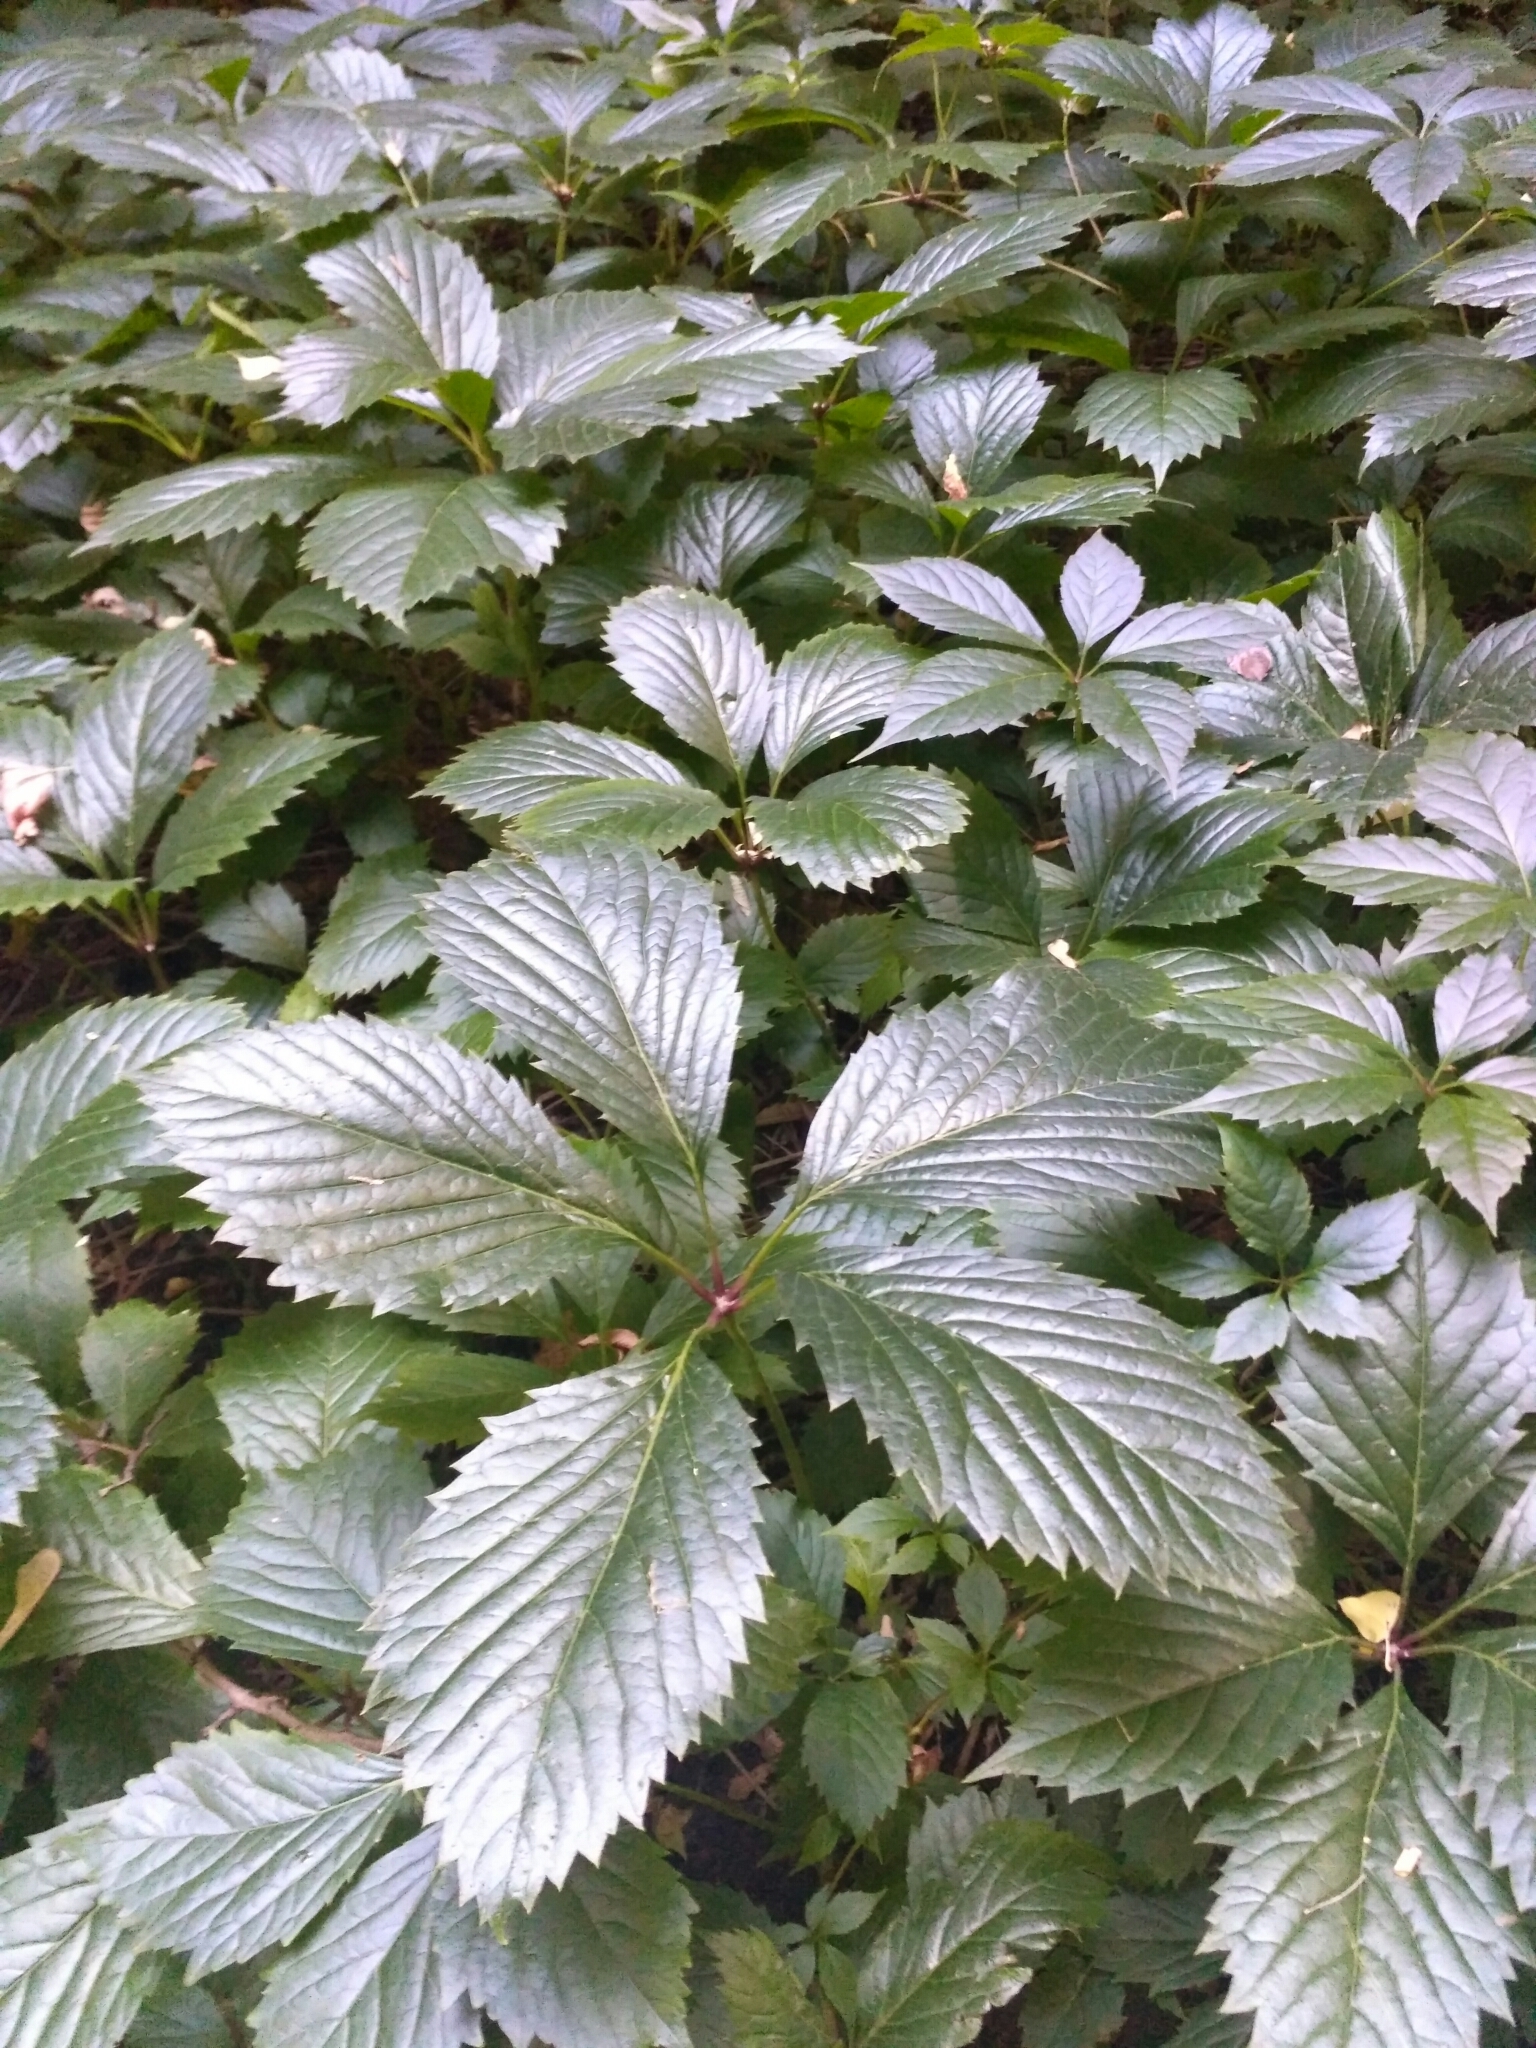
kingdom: Plantae
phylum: Tracheophyta
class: Magnoliopsida
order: Vitales
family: Vitaceae
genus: Parthenocissus
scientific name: Parthenocissus inserta
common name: False virginia-creeper
